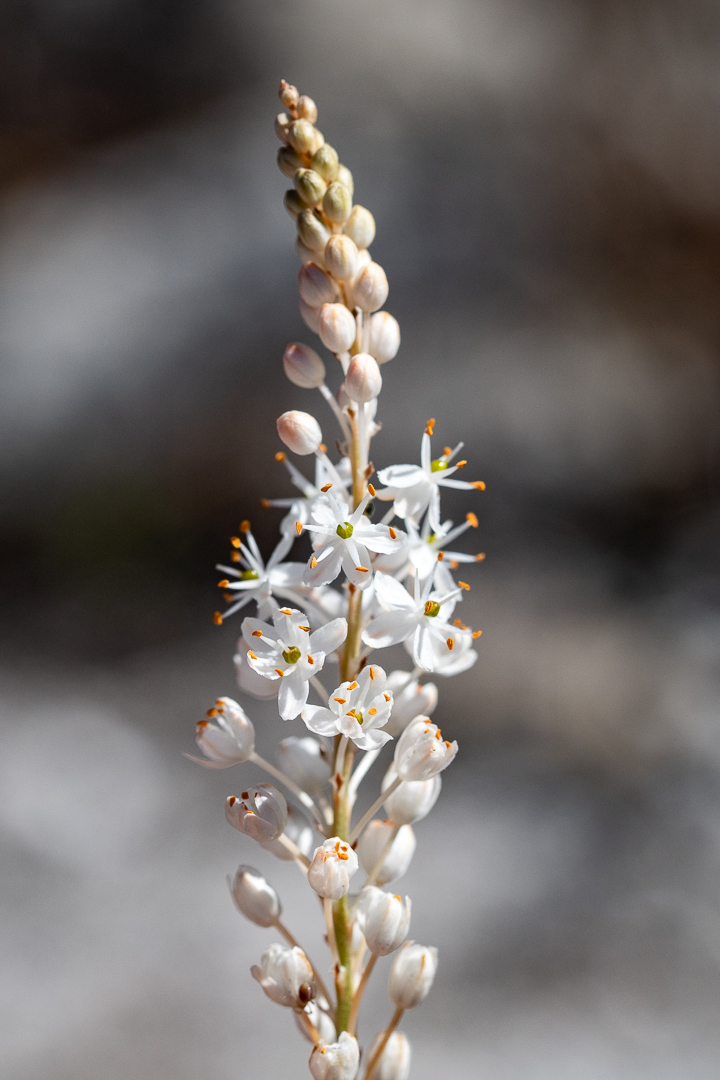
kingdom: Plantae
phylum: Tracheophyta
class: Liliopsida
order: Asparagales
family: Asphodelaceae
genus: Bulbinella
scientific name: Bulbinella trinervis
